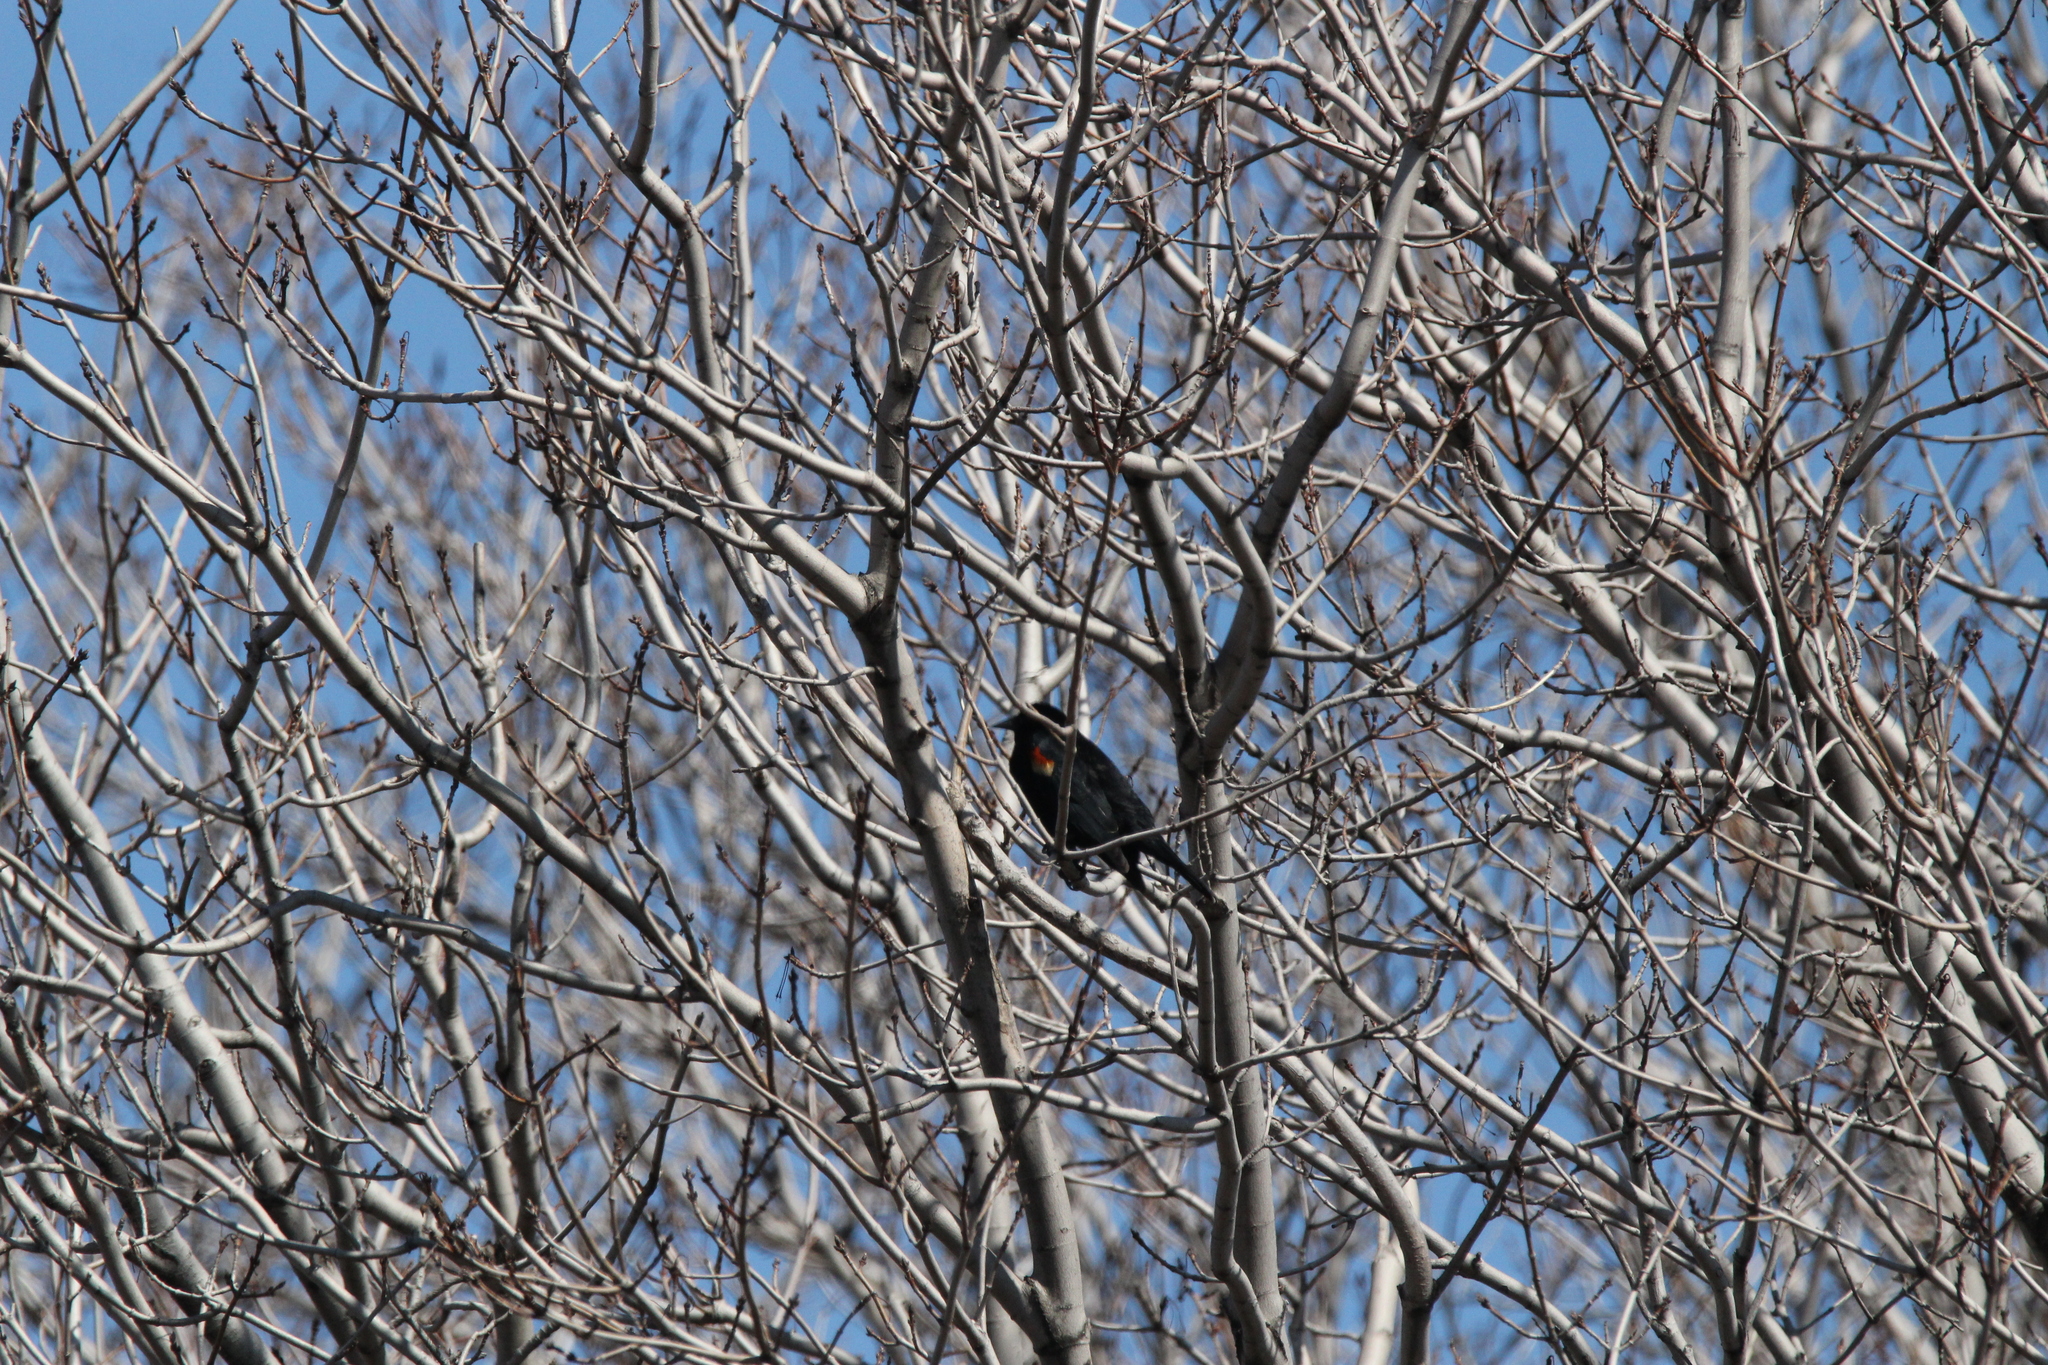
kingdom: Animalia
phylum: Chordata
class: Aves
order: Passeriformes
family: Icteridae
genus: Agelaius
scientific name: Agelaius phoeniceus
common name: Red-winged blackbird
